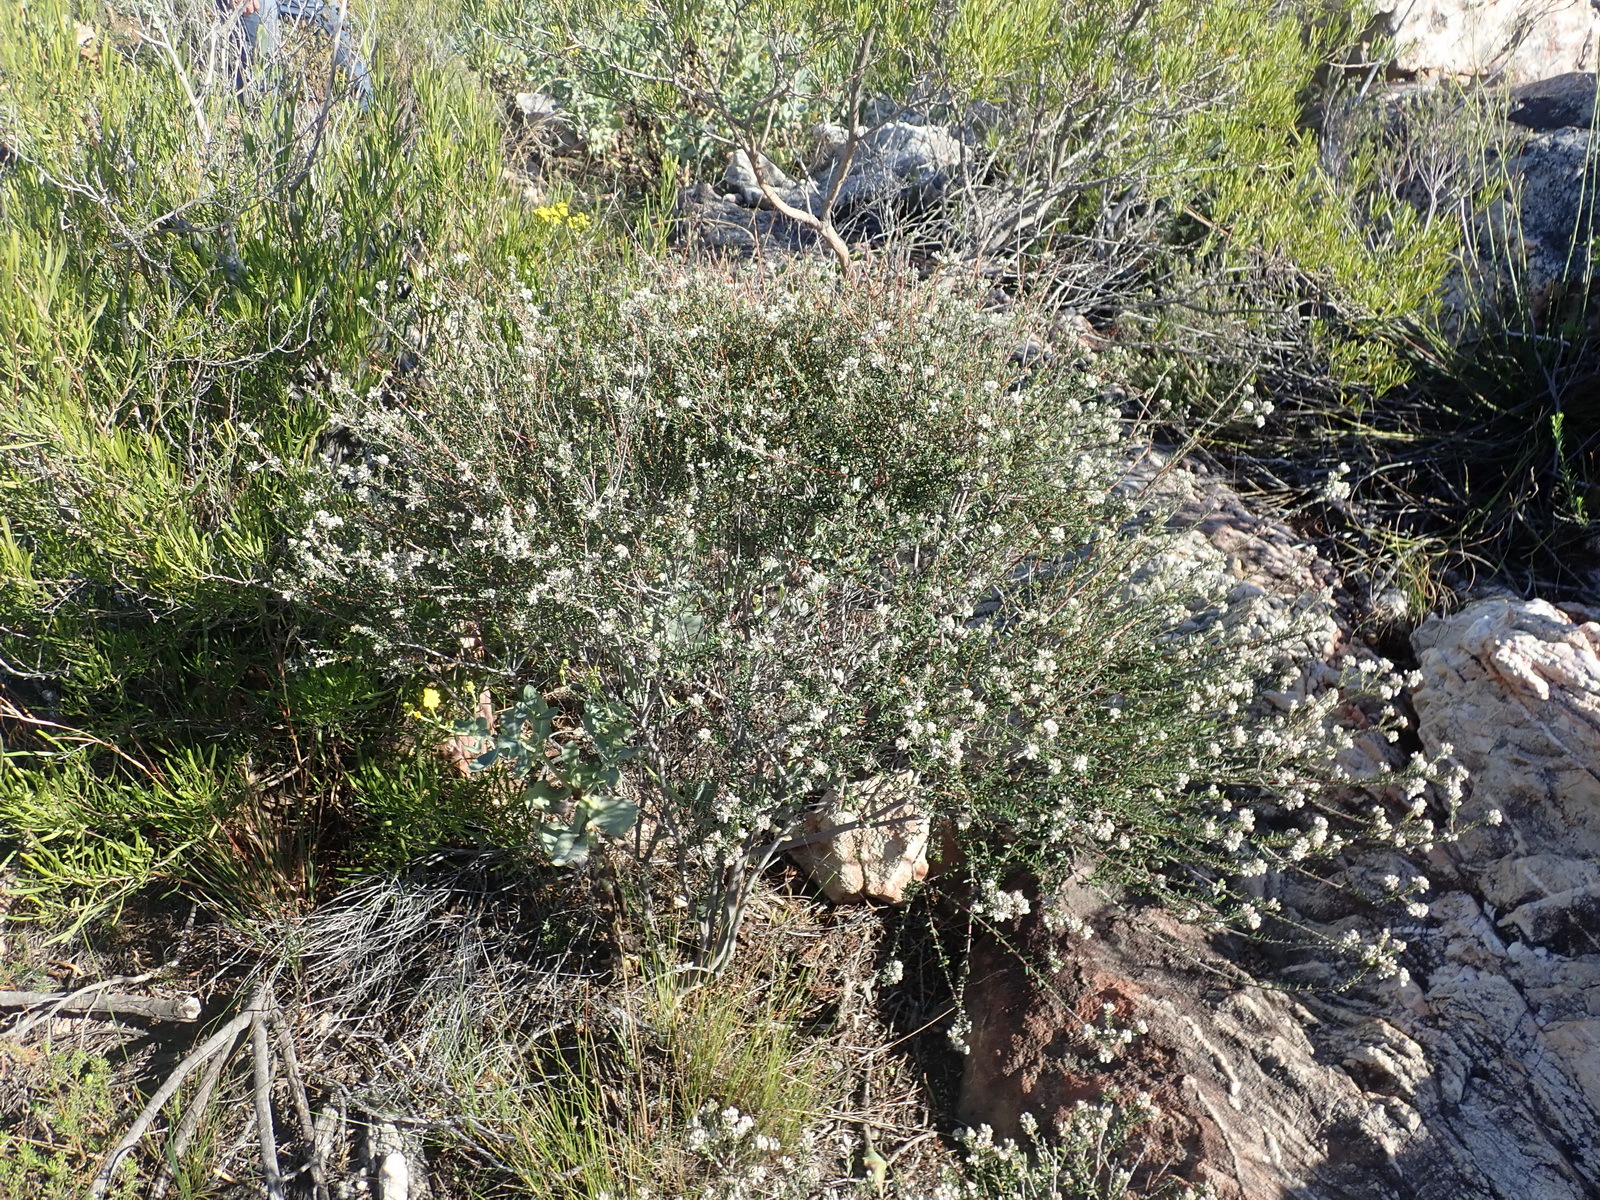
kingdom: Plantae
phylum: Tracheophyta
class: Magnoliopsida
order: Rosales
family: Rhamnaceae
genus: Phylica
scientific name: Phylica purpurea
